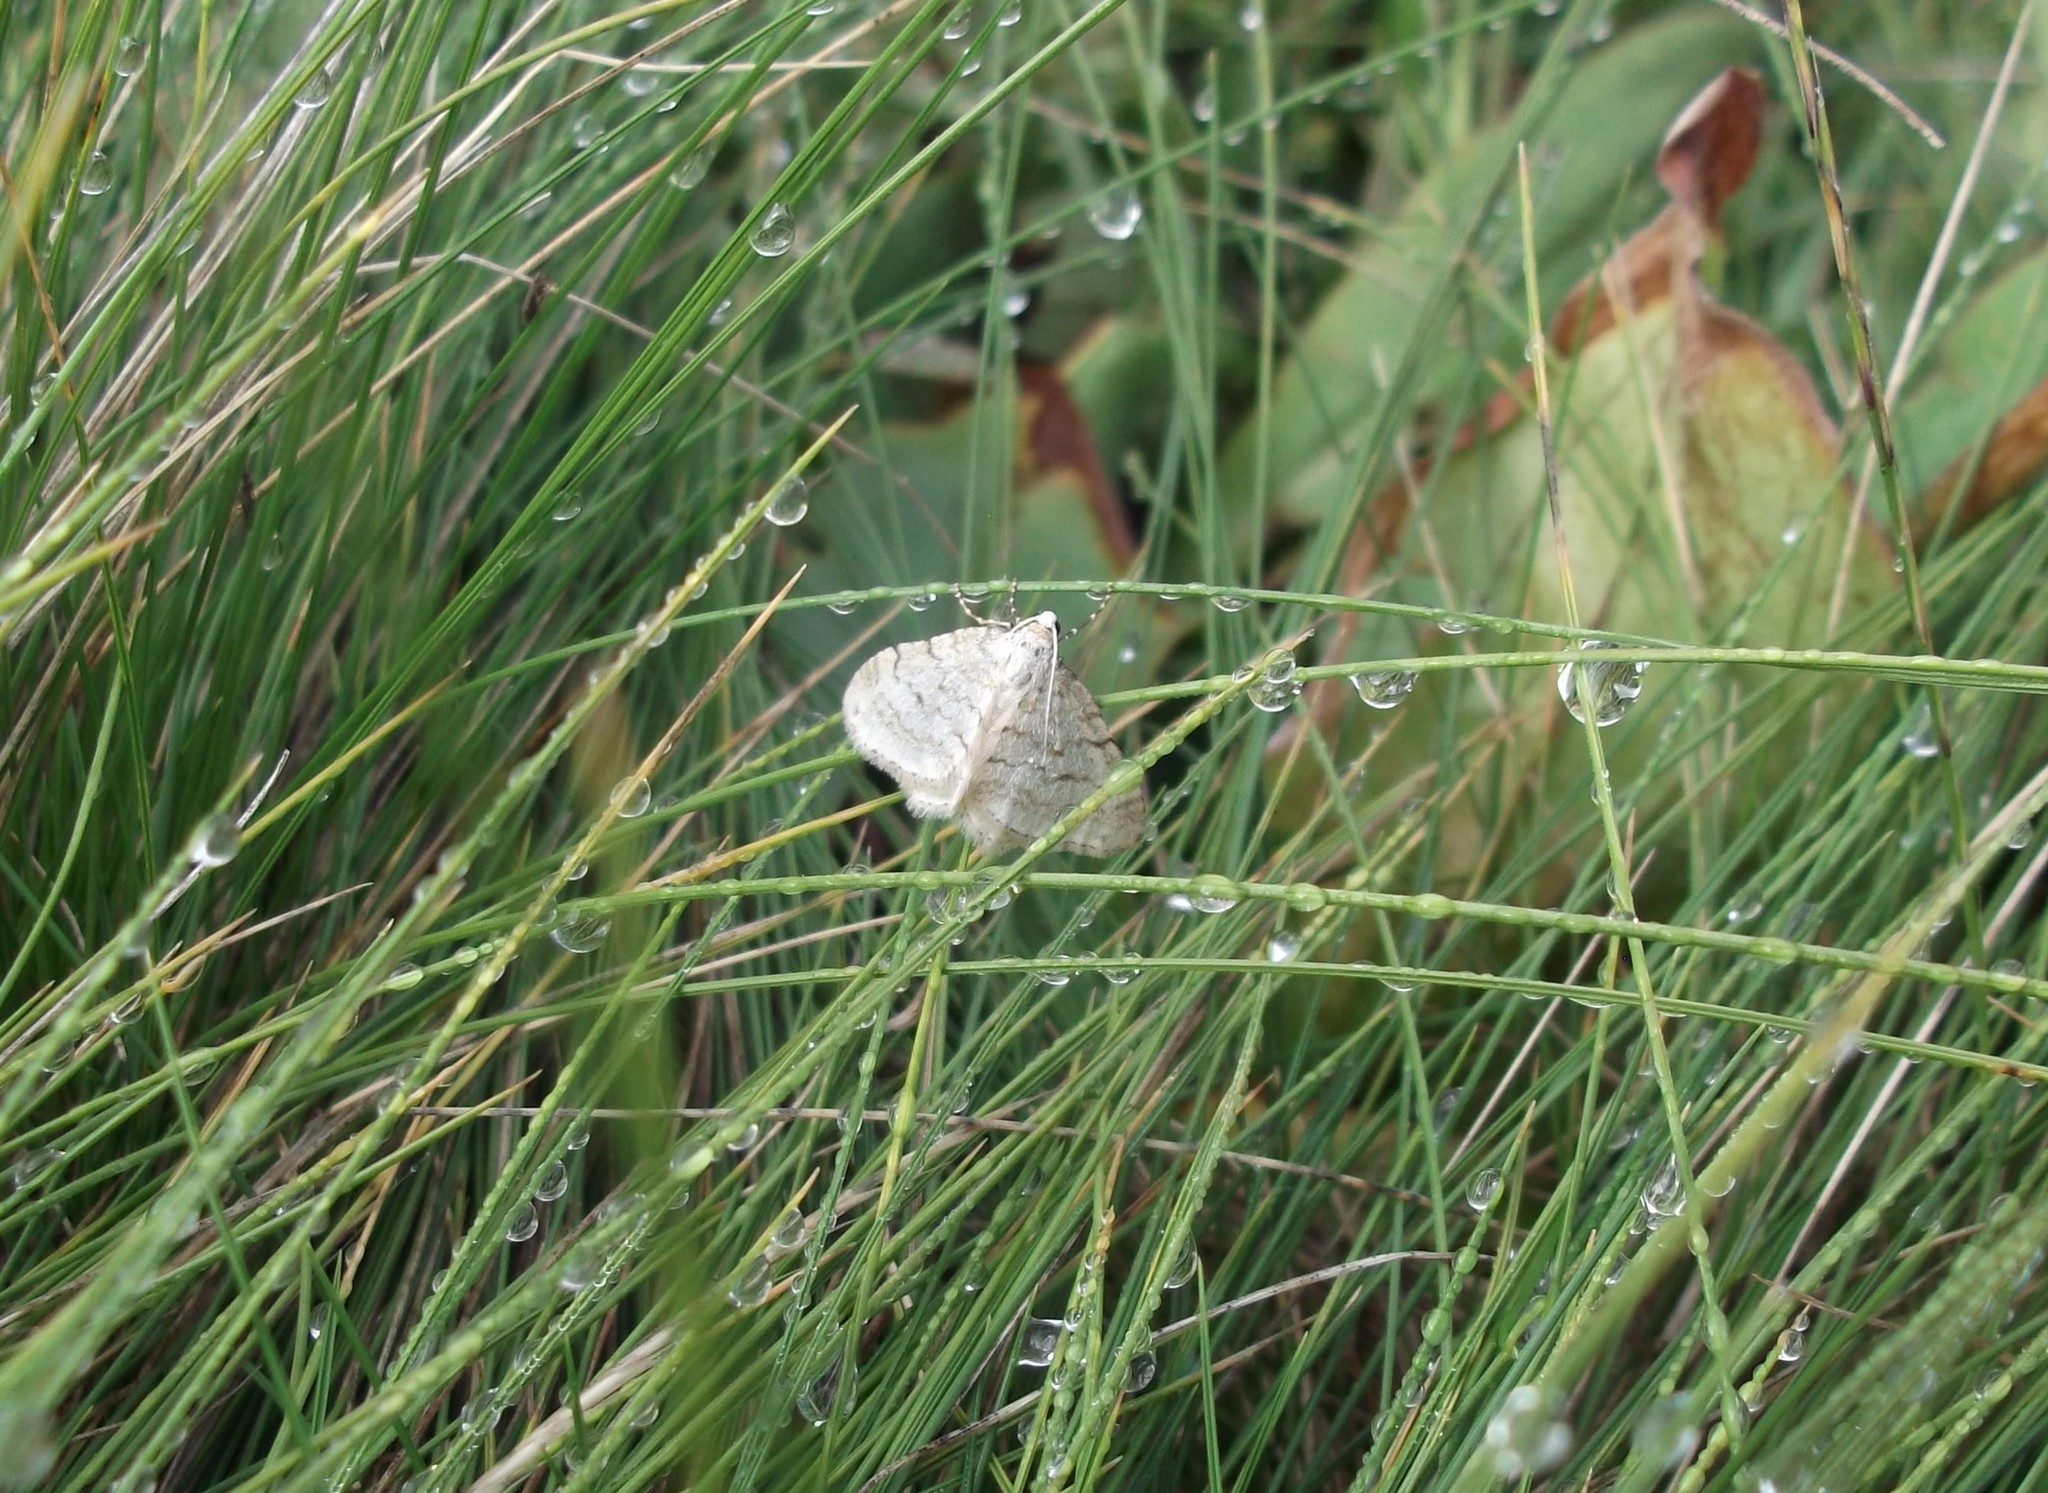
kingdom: Animalia
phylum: Arthropoda
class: Insecta
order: Lepidoptera
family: Geometridae
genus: Perizoma
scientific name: Perizoma verberata
